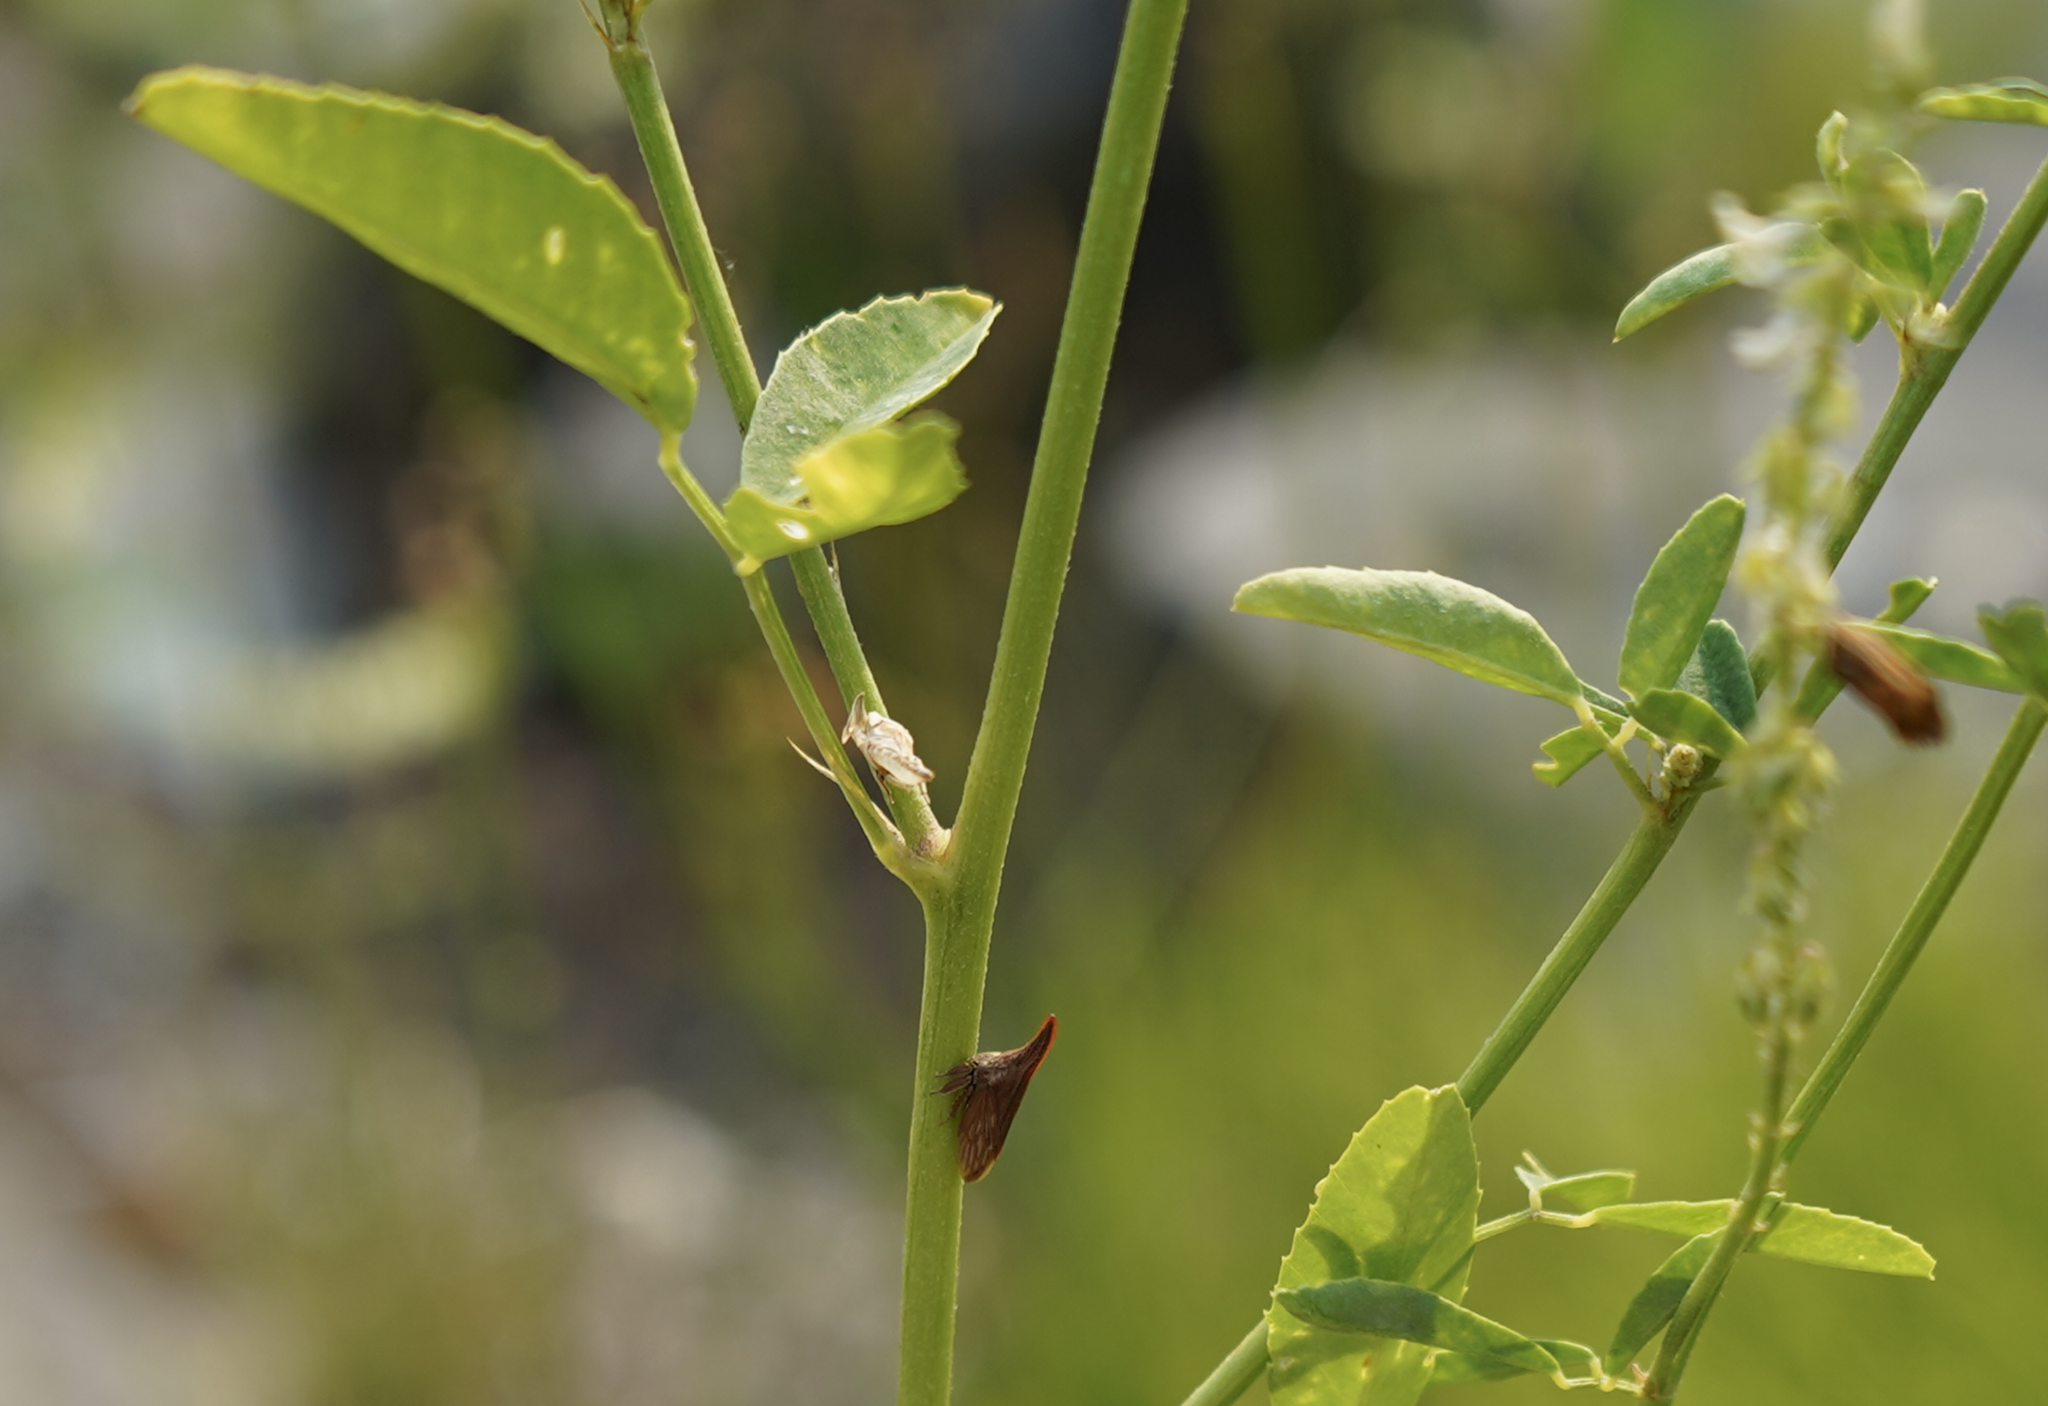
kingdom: Animalia
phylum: Arthropoda
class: Insecta
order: Hemiptera
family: Membracidae
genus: Enchenopa
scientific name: Enchenopa latipes
